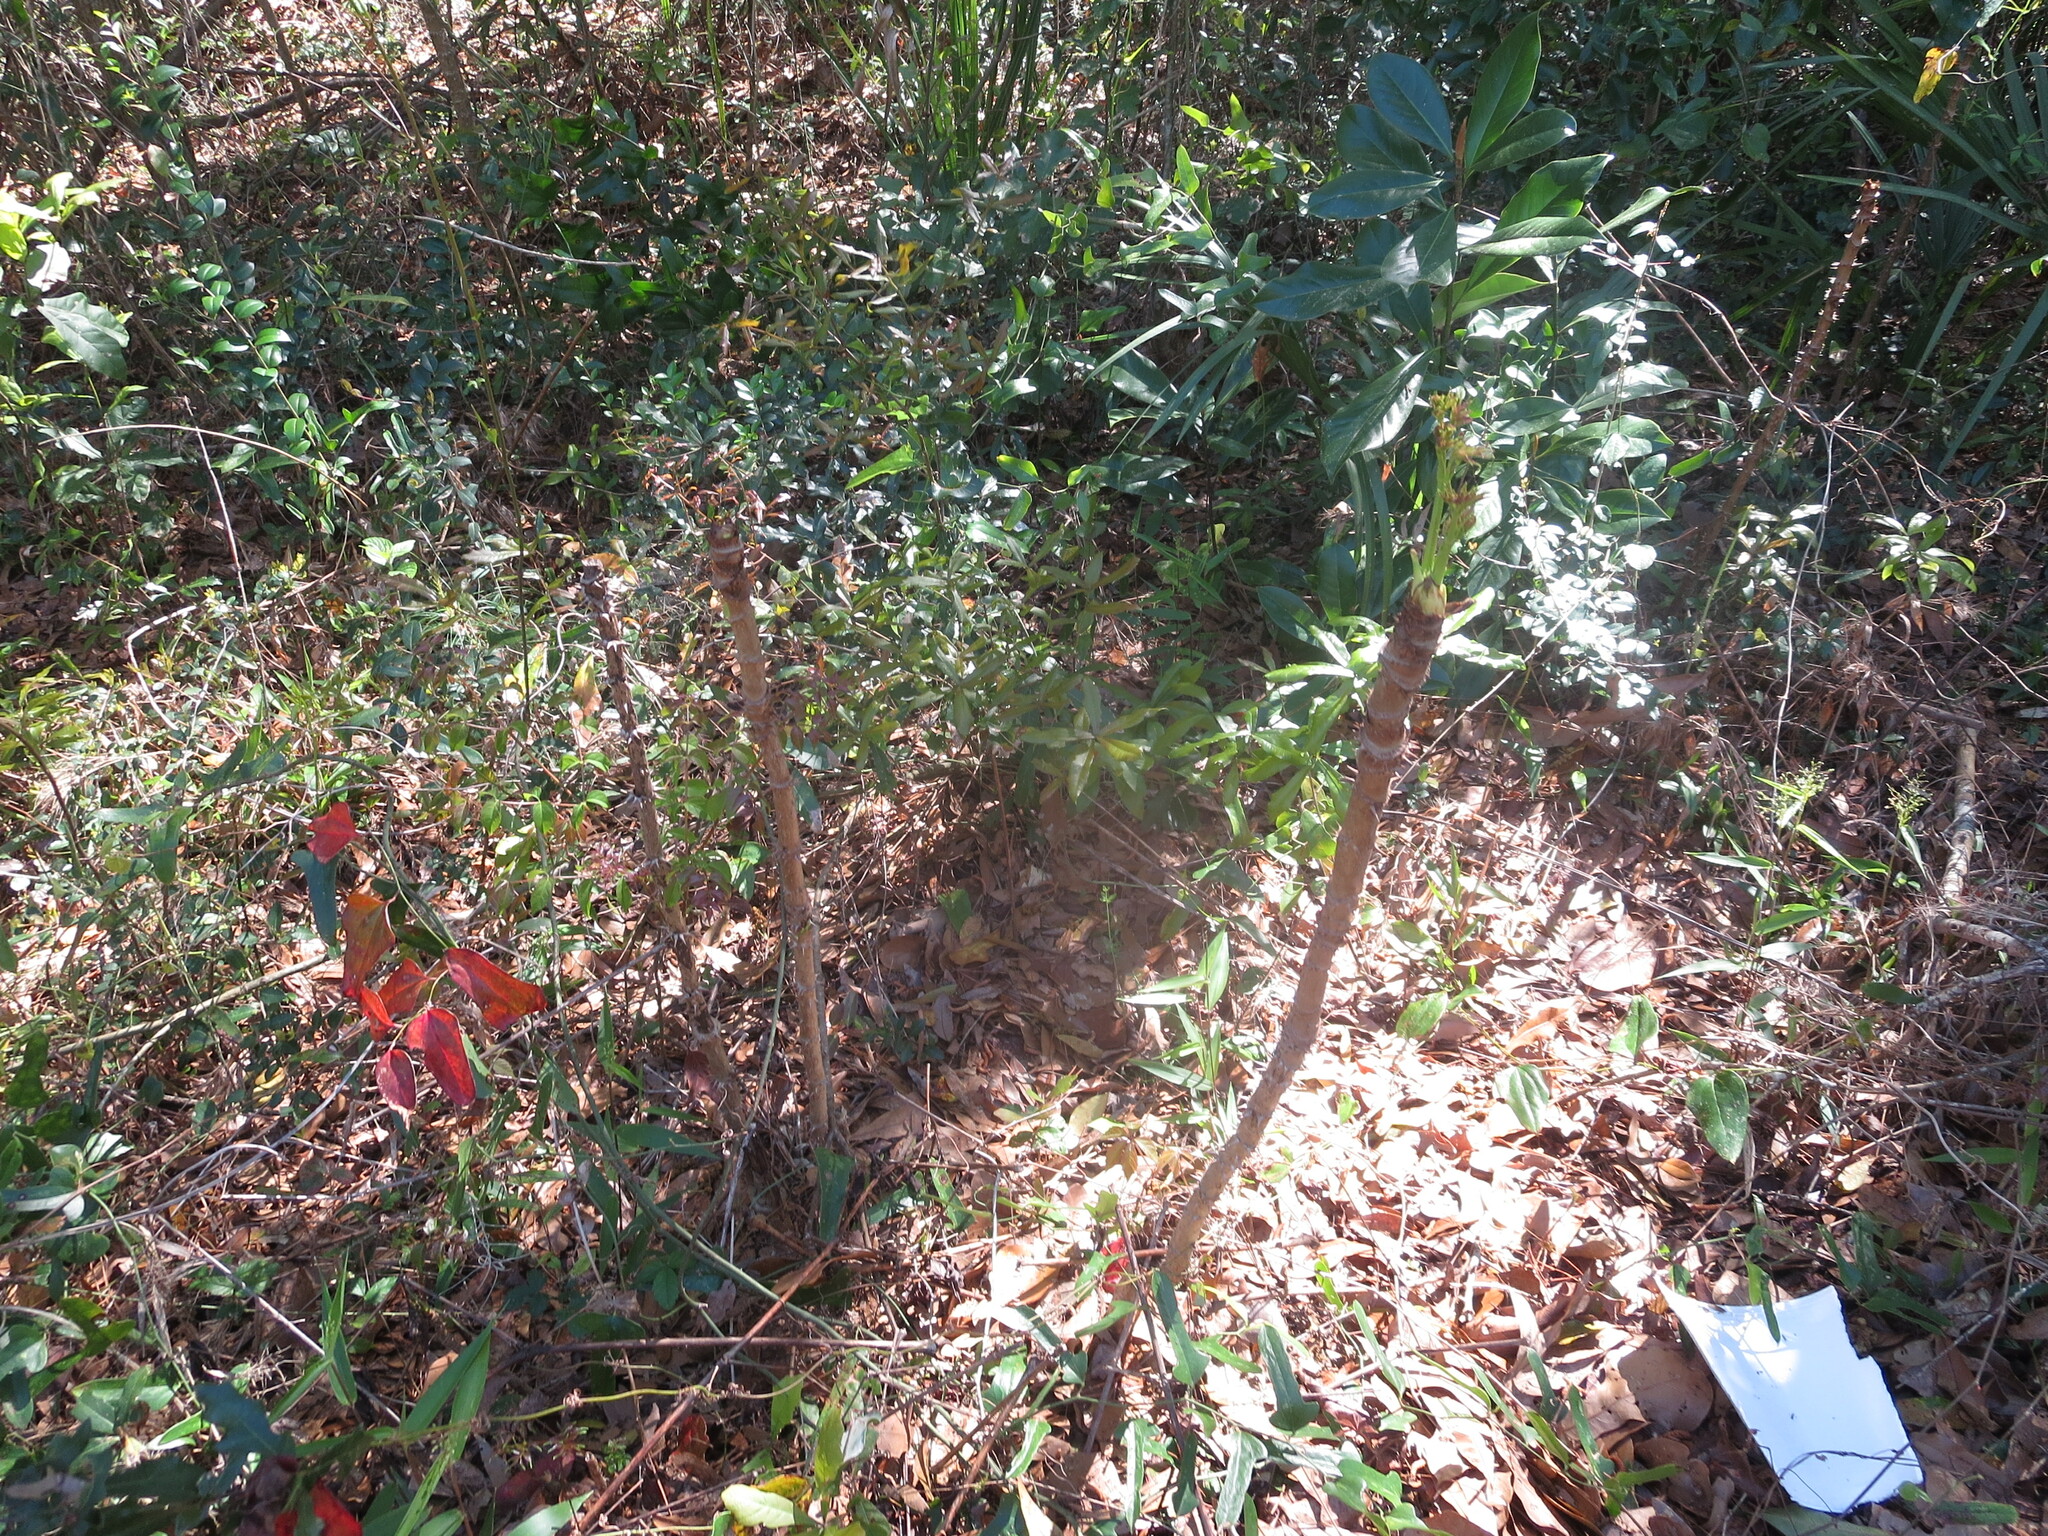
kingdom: Plantae
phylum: Tracheophyta
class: Magnoliopsida
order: Apiales
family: Araliaceae
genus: Aralia
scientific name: Aralia spinosa
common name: Hercules'-club
